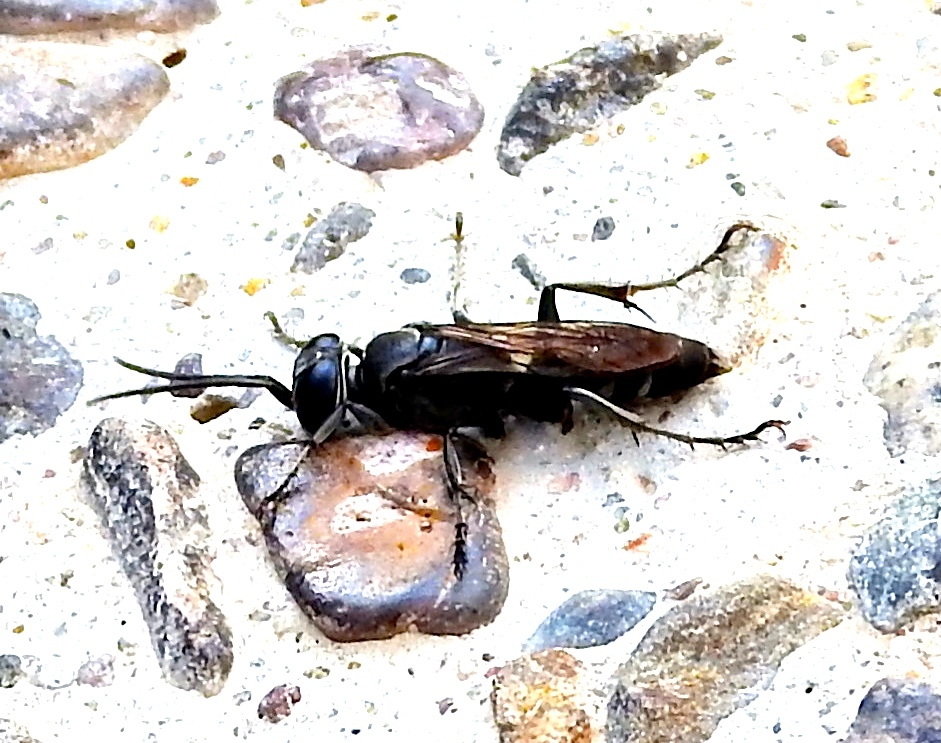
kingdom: Animalia
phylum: Arthropoda
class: Insecta
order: Hymenoptera
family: Crabronidae
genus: Larra
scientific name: Larra
